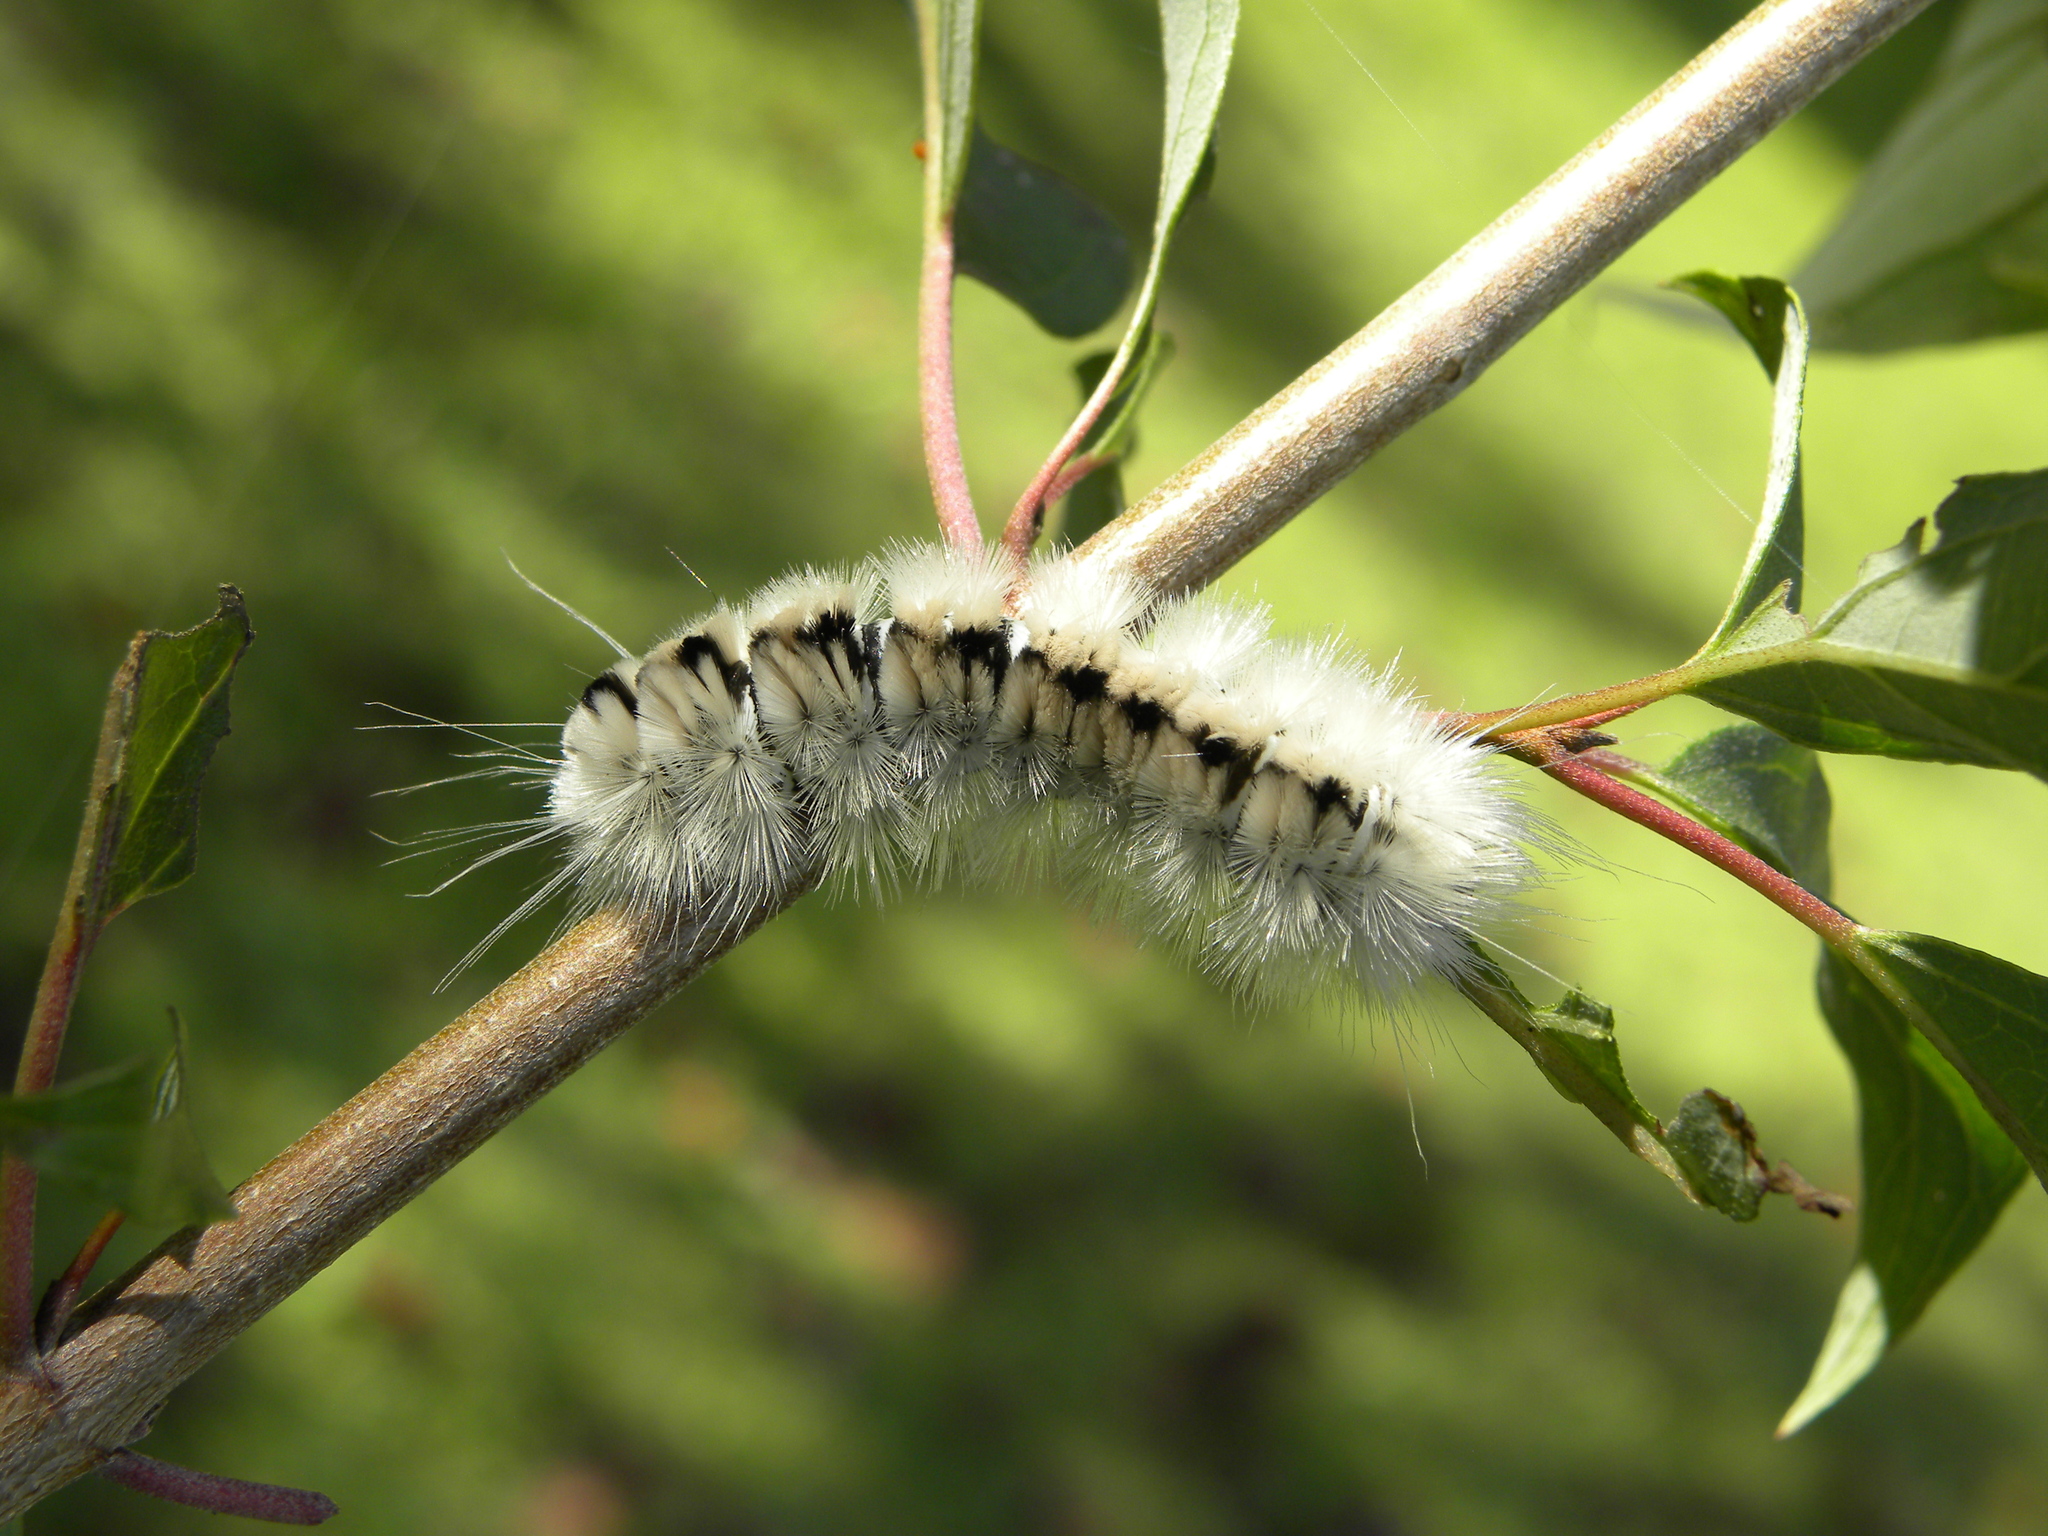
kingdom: Animalia
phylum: Arthropoda
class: Insecta
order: Lepidoptera
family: Erebidae
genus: Lophocampa
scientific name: Lophocampa caryae
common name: Hickory tussock moth
